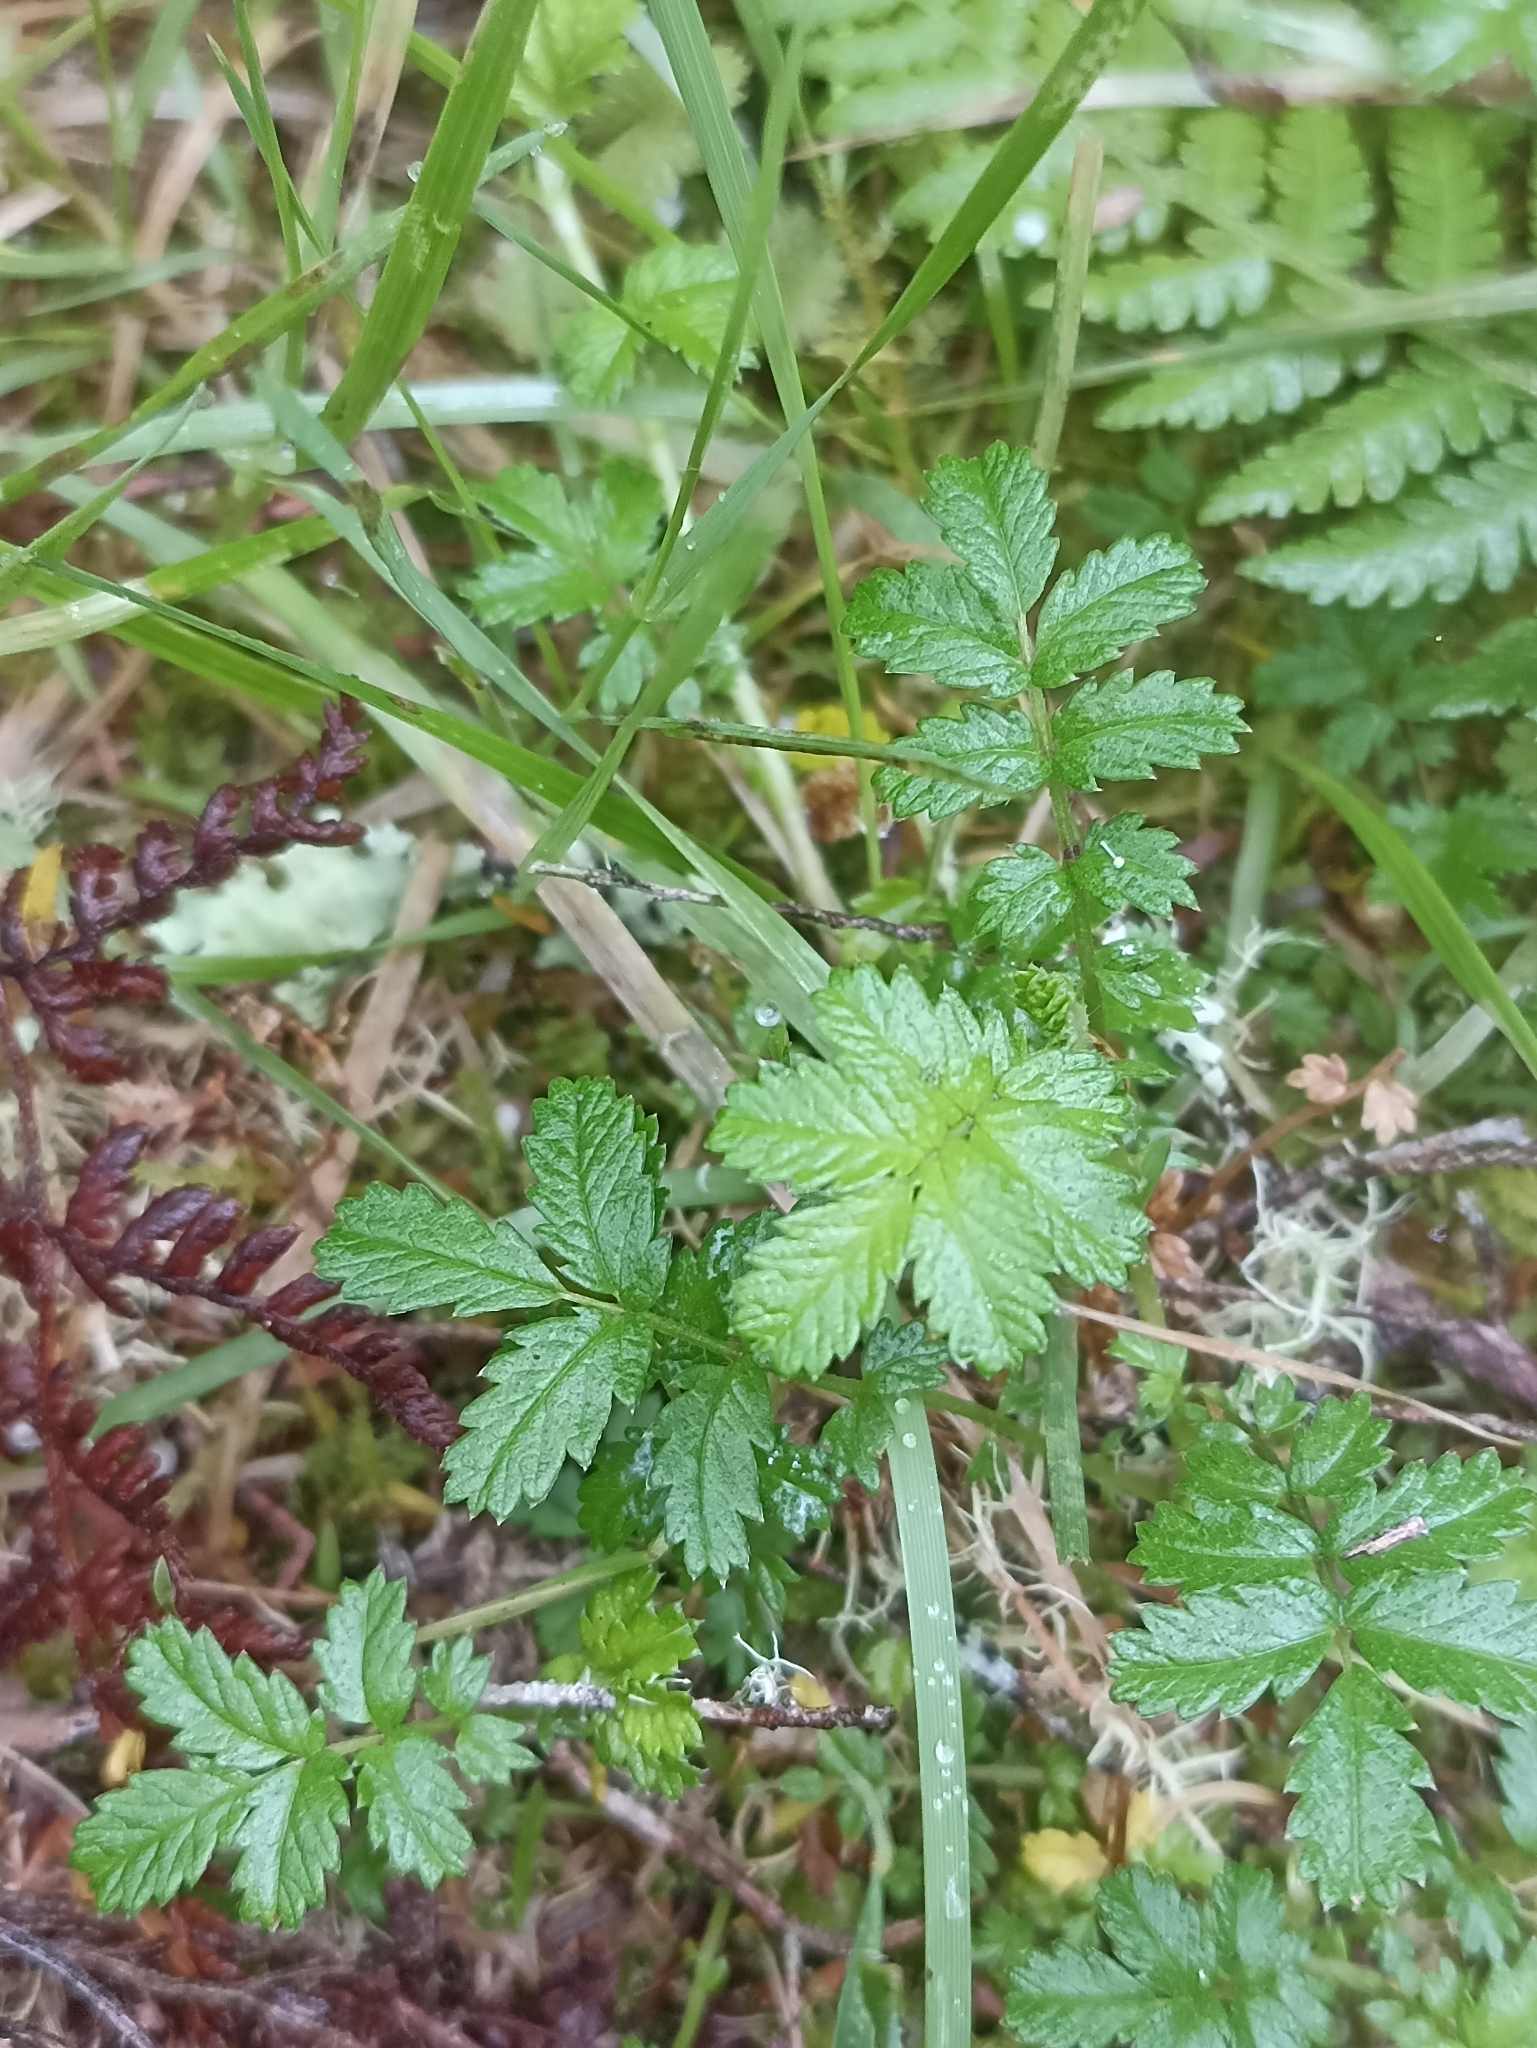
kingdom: Plantae
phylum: Tracheophyta
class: Magnoliopsida
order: Rosales
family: Rosaceae
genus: Acaena
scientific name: Acaena anserinifolia
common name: Bronze pirri-pirri-bur
